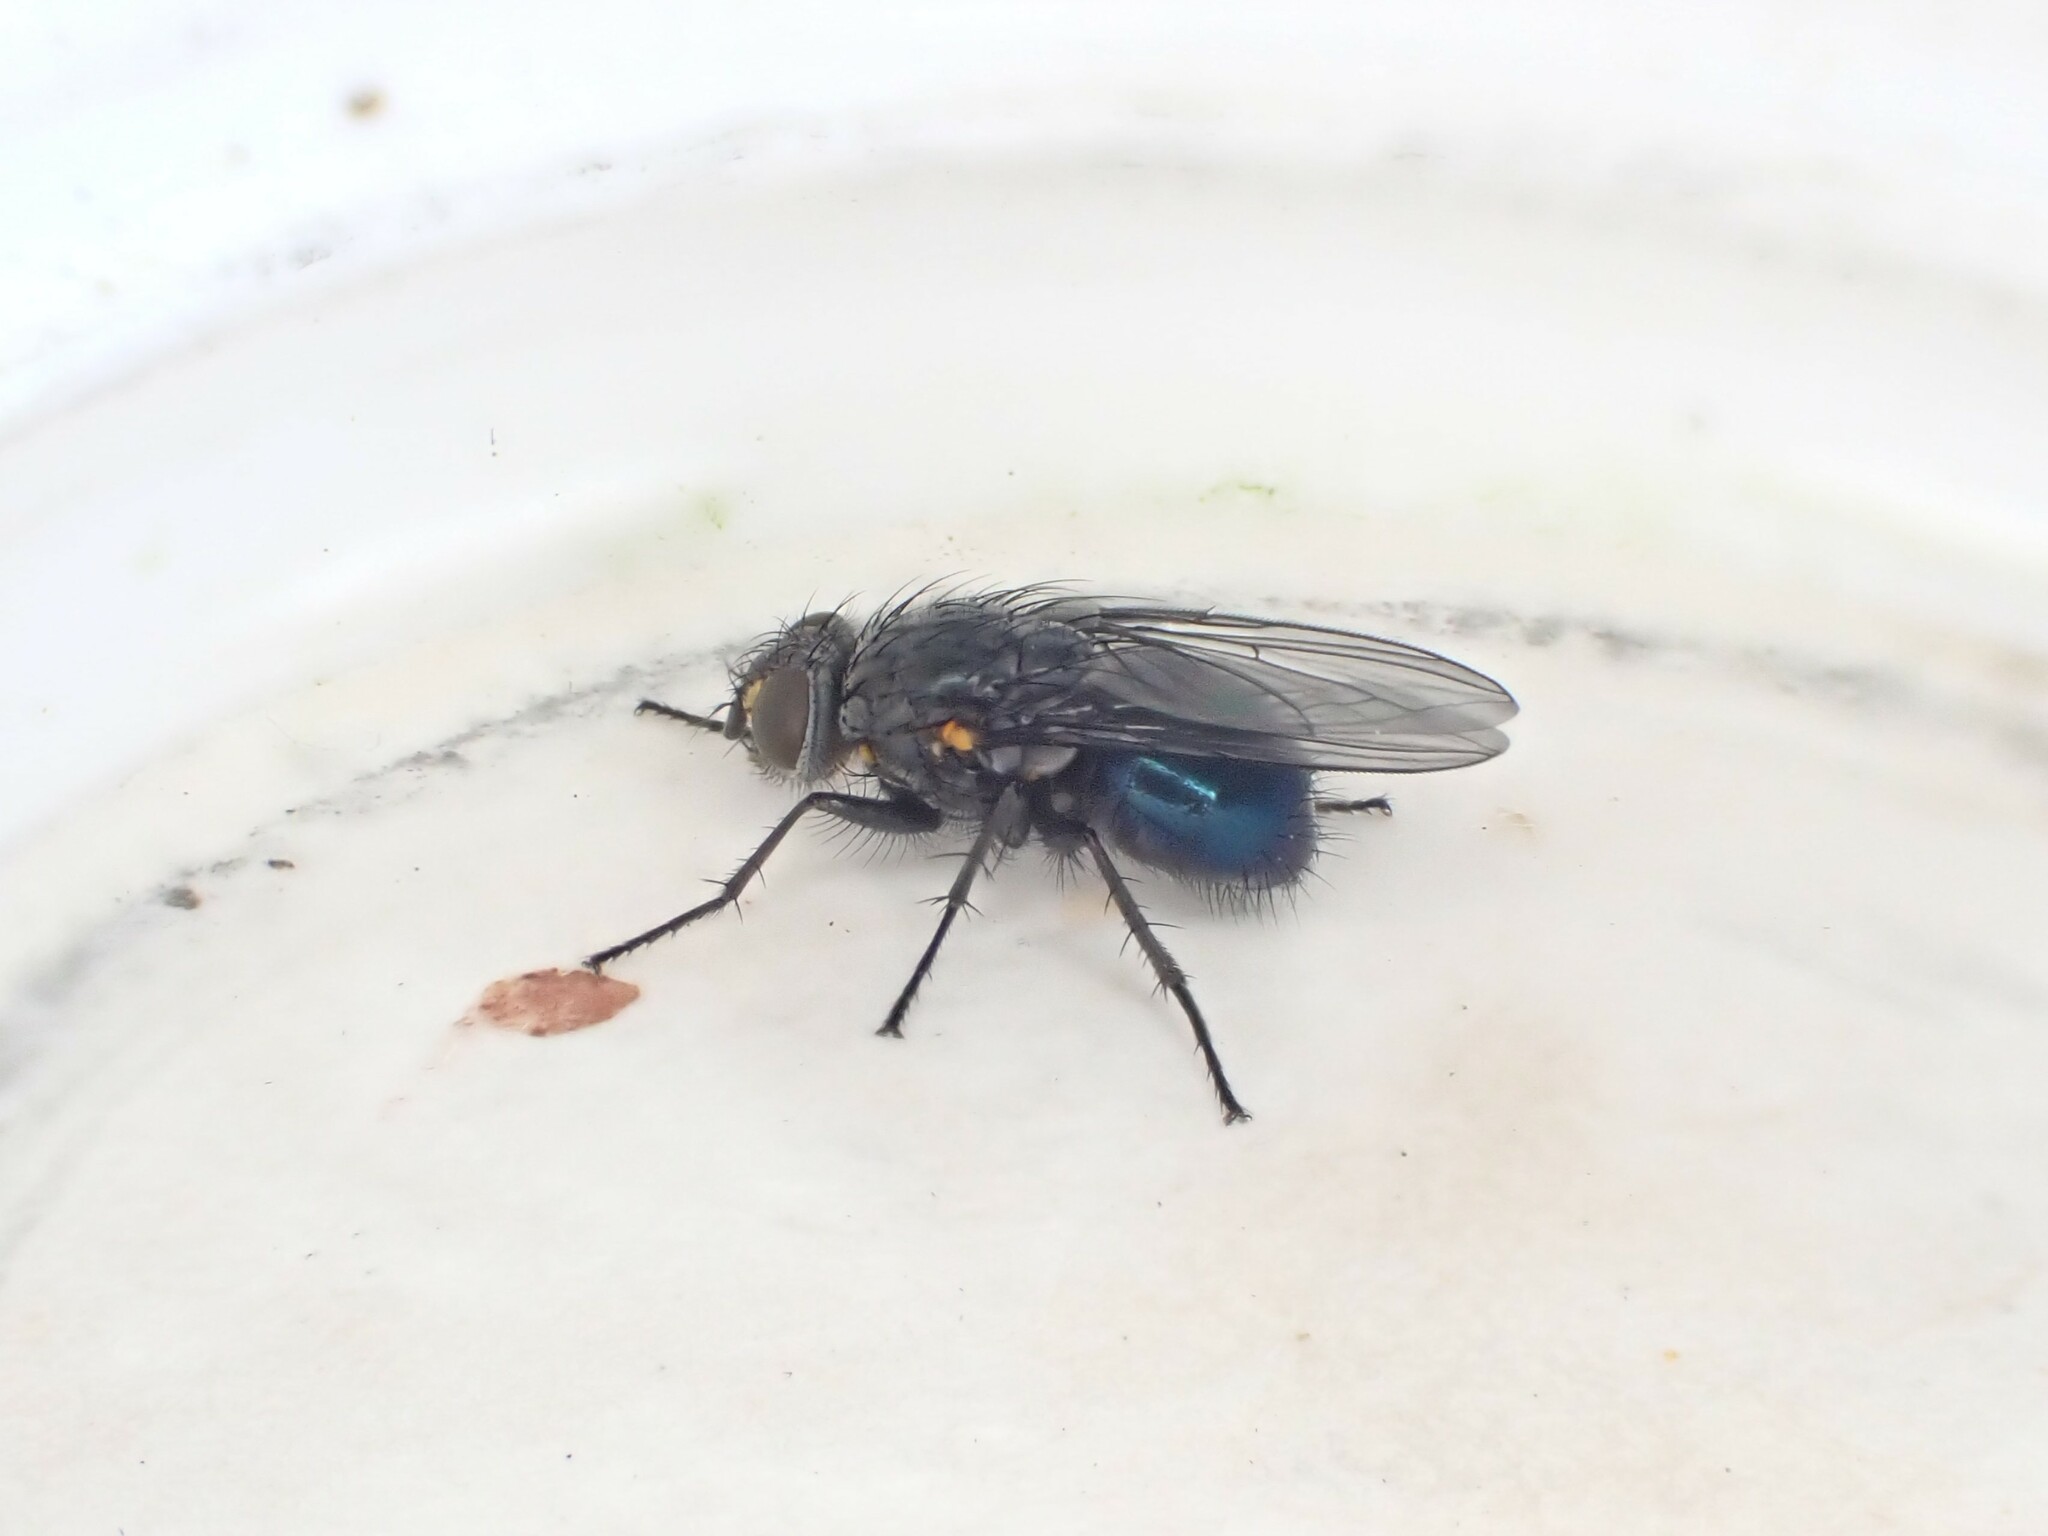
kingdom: Animalia
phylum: Arthropoda
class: Insecta
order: Diptera
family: Calliphoridae
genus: Calliphora
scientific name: Calliphora quadrimaculata
